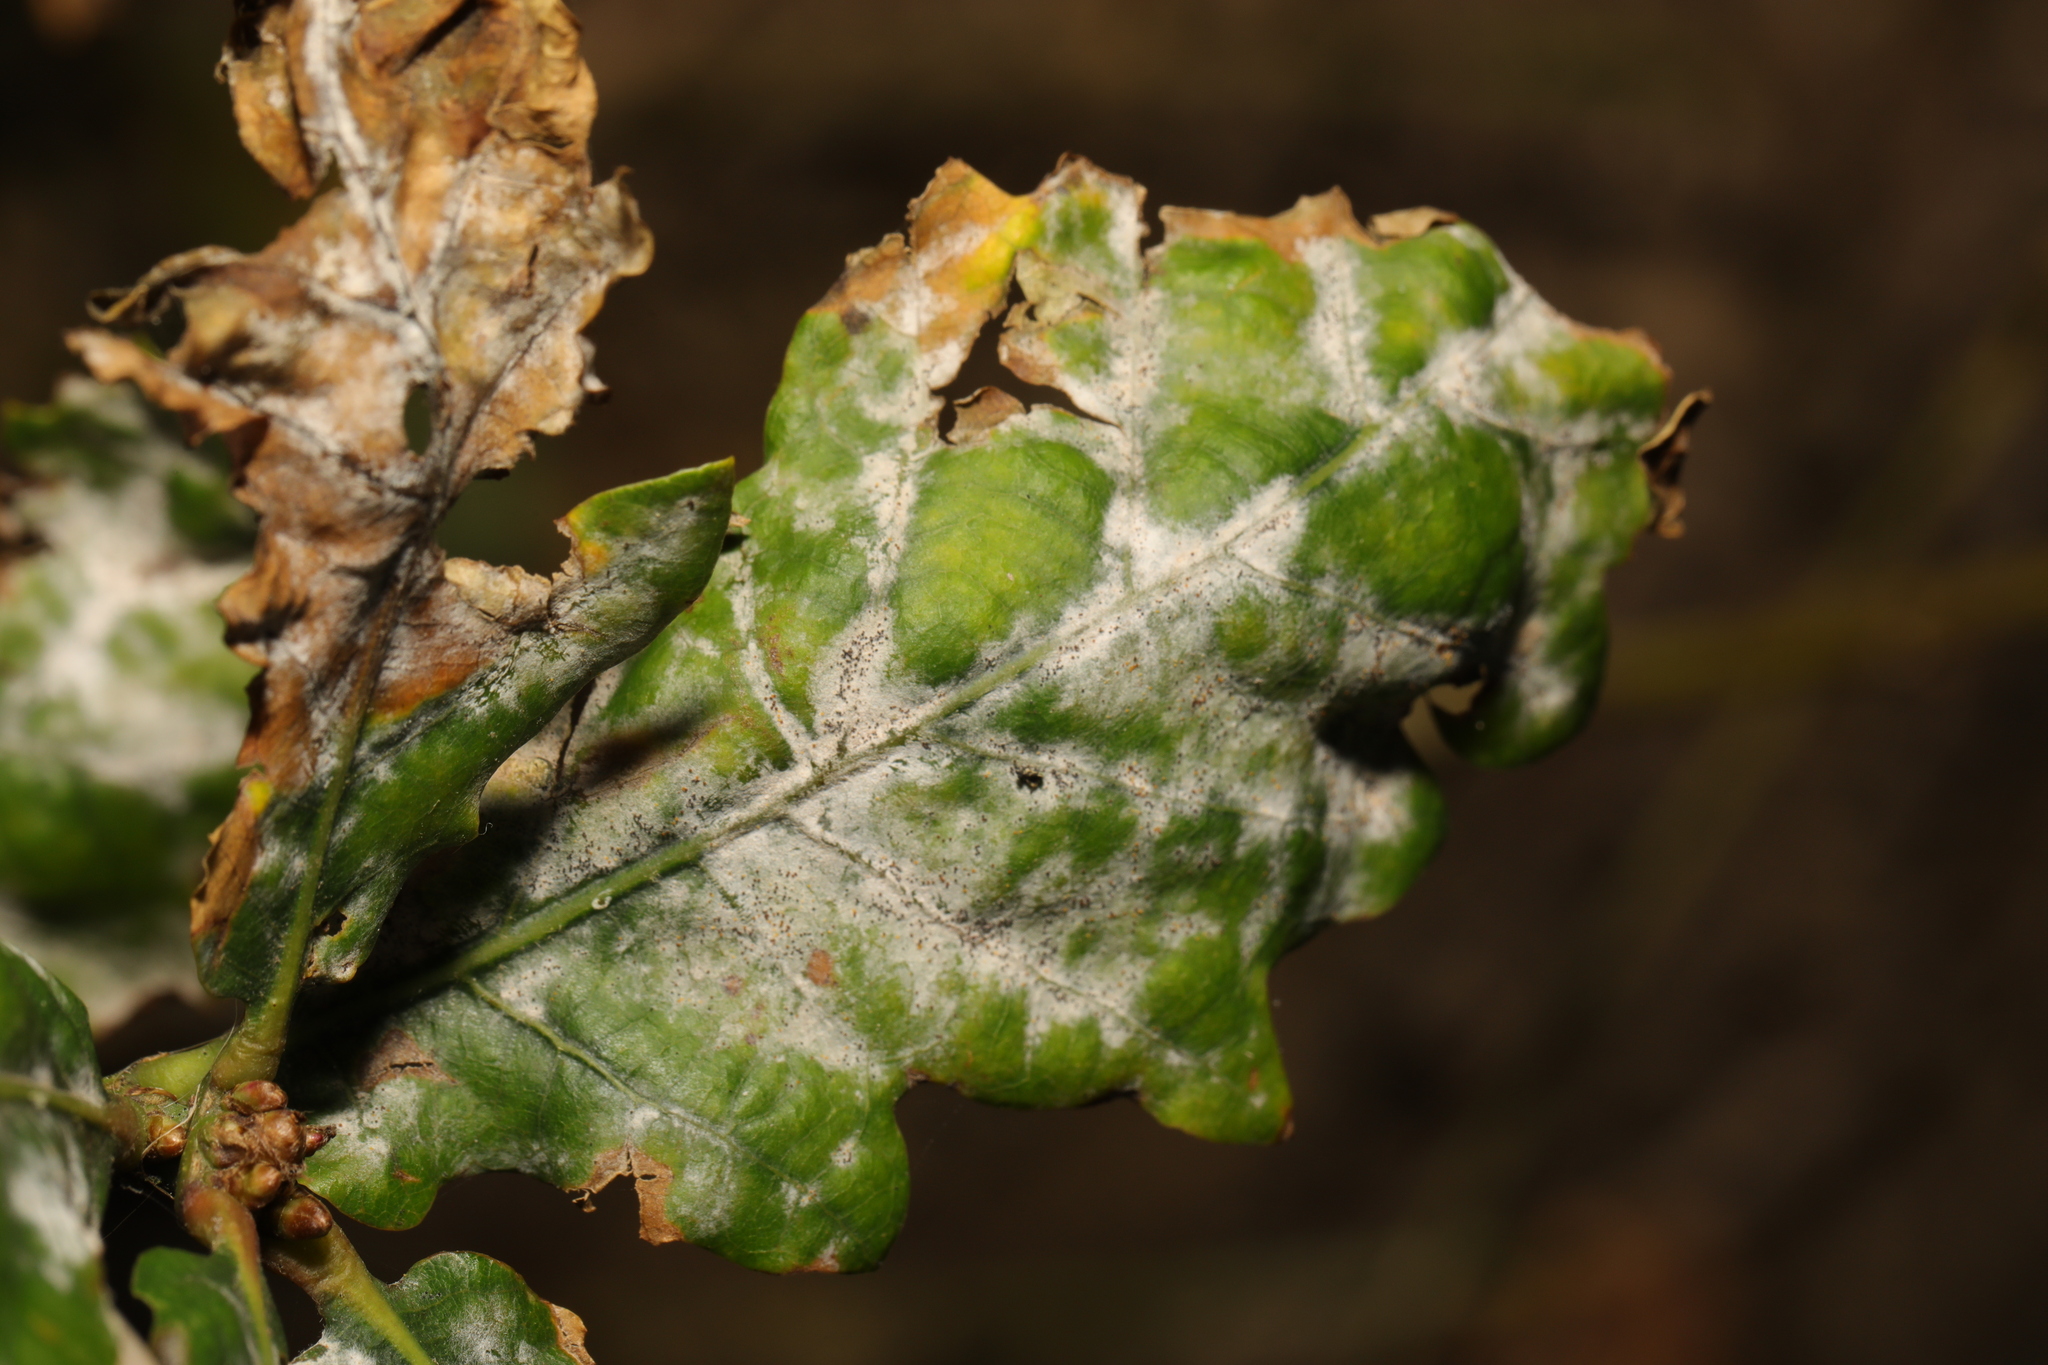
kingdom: Fungi
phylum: Ascomycota
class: Leotiomycetes
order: Helotiales
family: Erysiphaceae
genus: Erysiphe
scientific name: Erysiphe alphitoides
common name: Oak mildew
